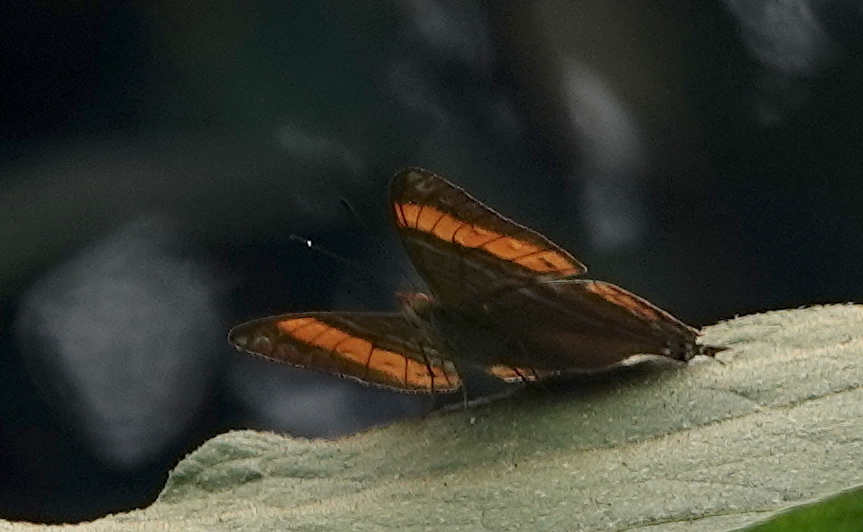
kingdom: Animalia
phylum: Arthropoda
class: Insecta
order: Lepidoptera
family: Nymphalidae
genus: Marpesia
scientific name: Marpesia corinna
